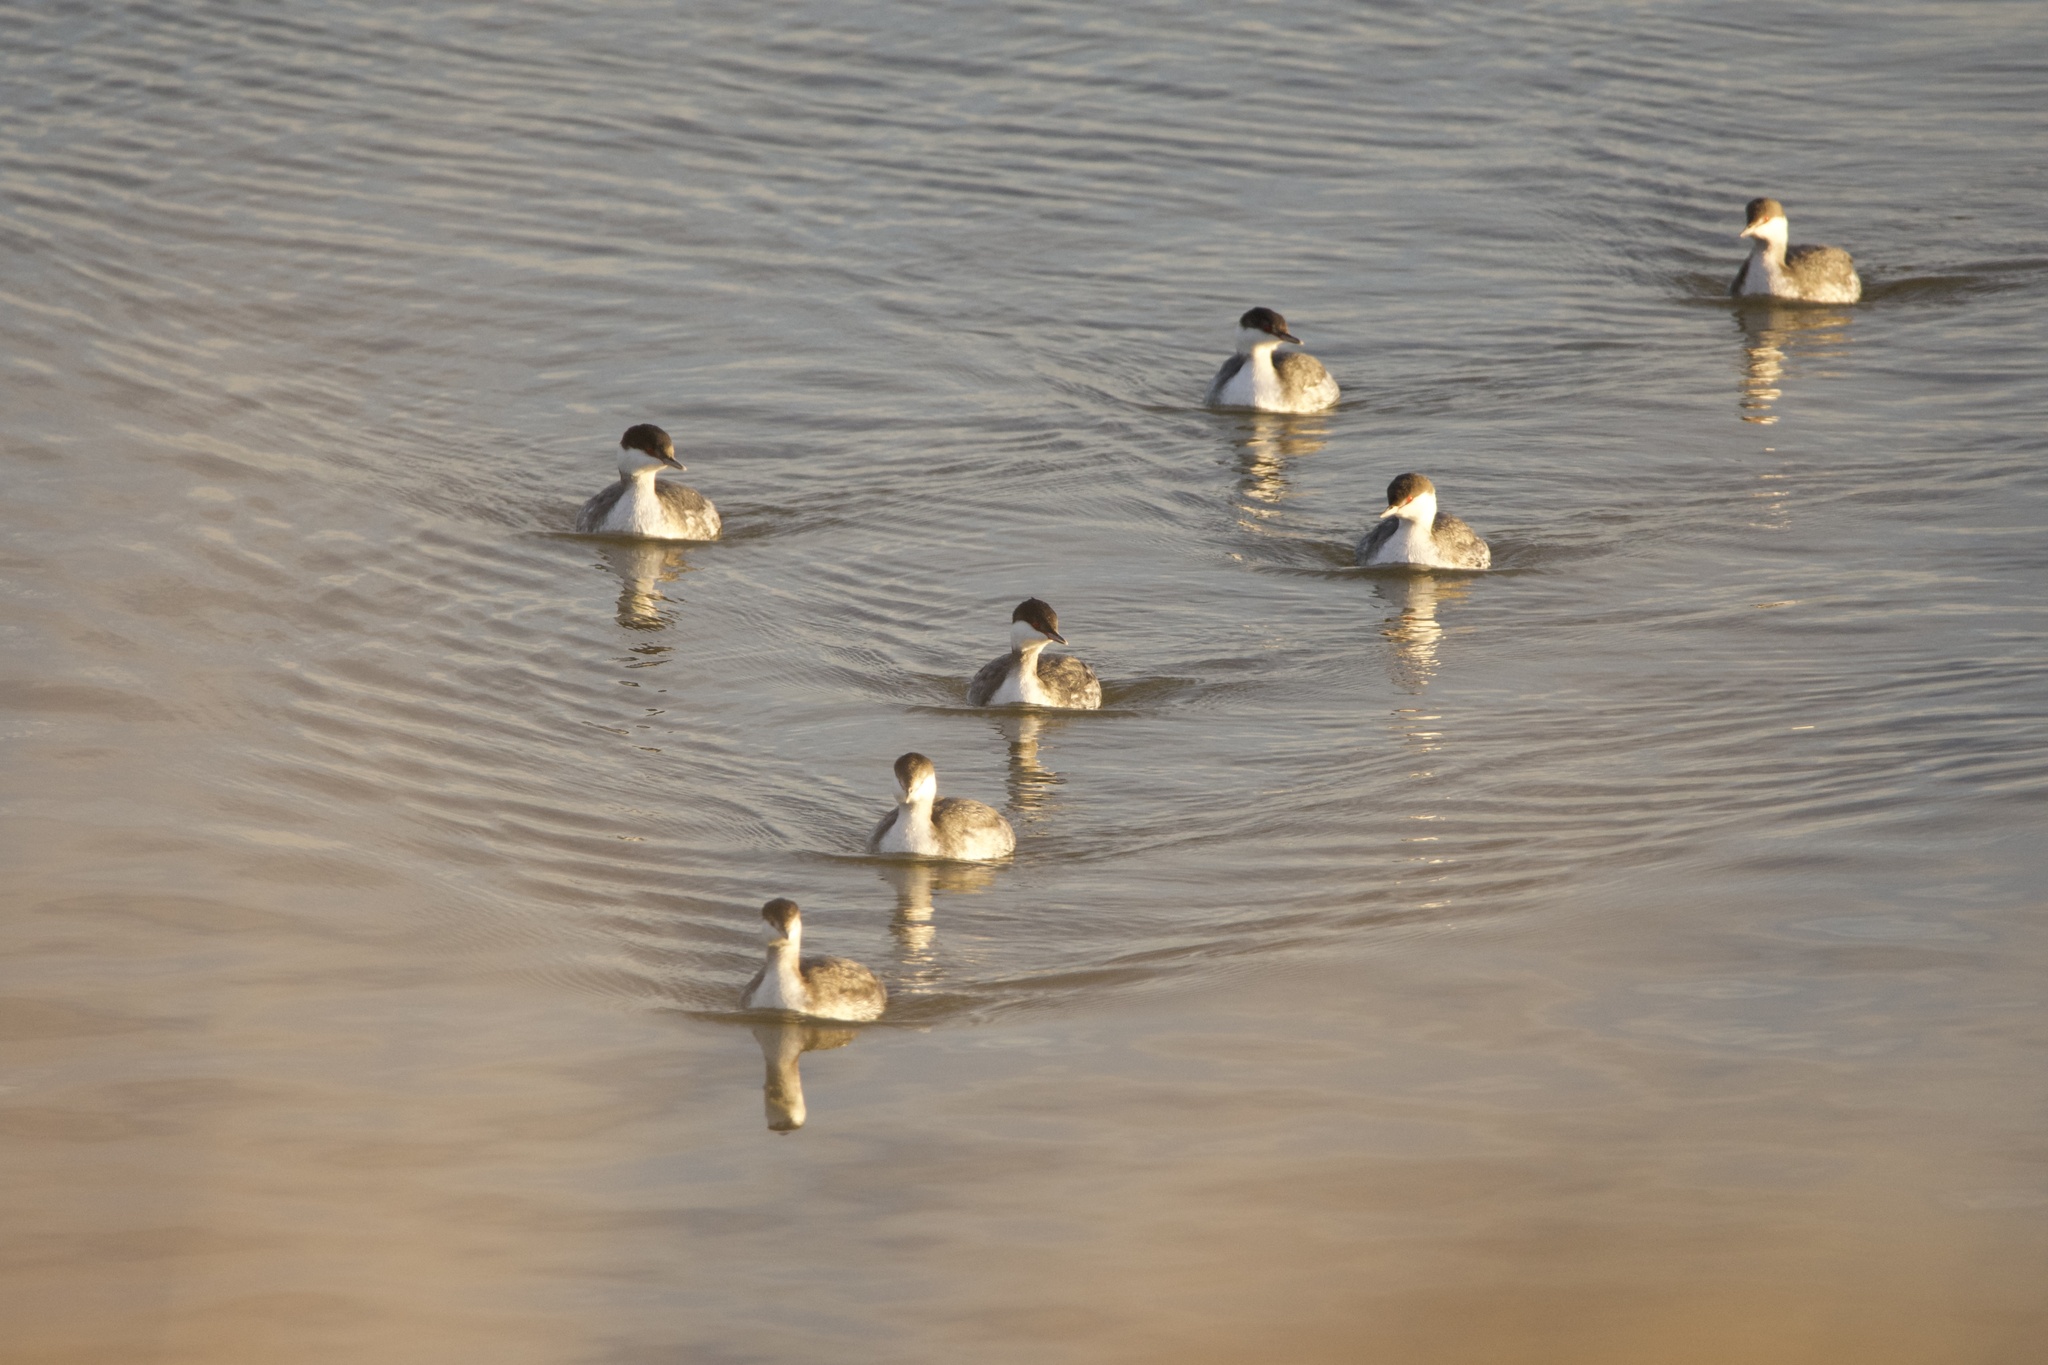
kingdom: Animalia
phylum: Chordata
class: Aves
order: Podicipediformes
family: Podicipedidae
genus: Podiceps
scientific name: Podiceps auritus
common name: Horned grebe
